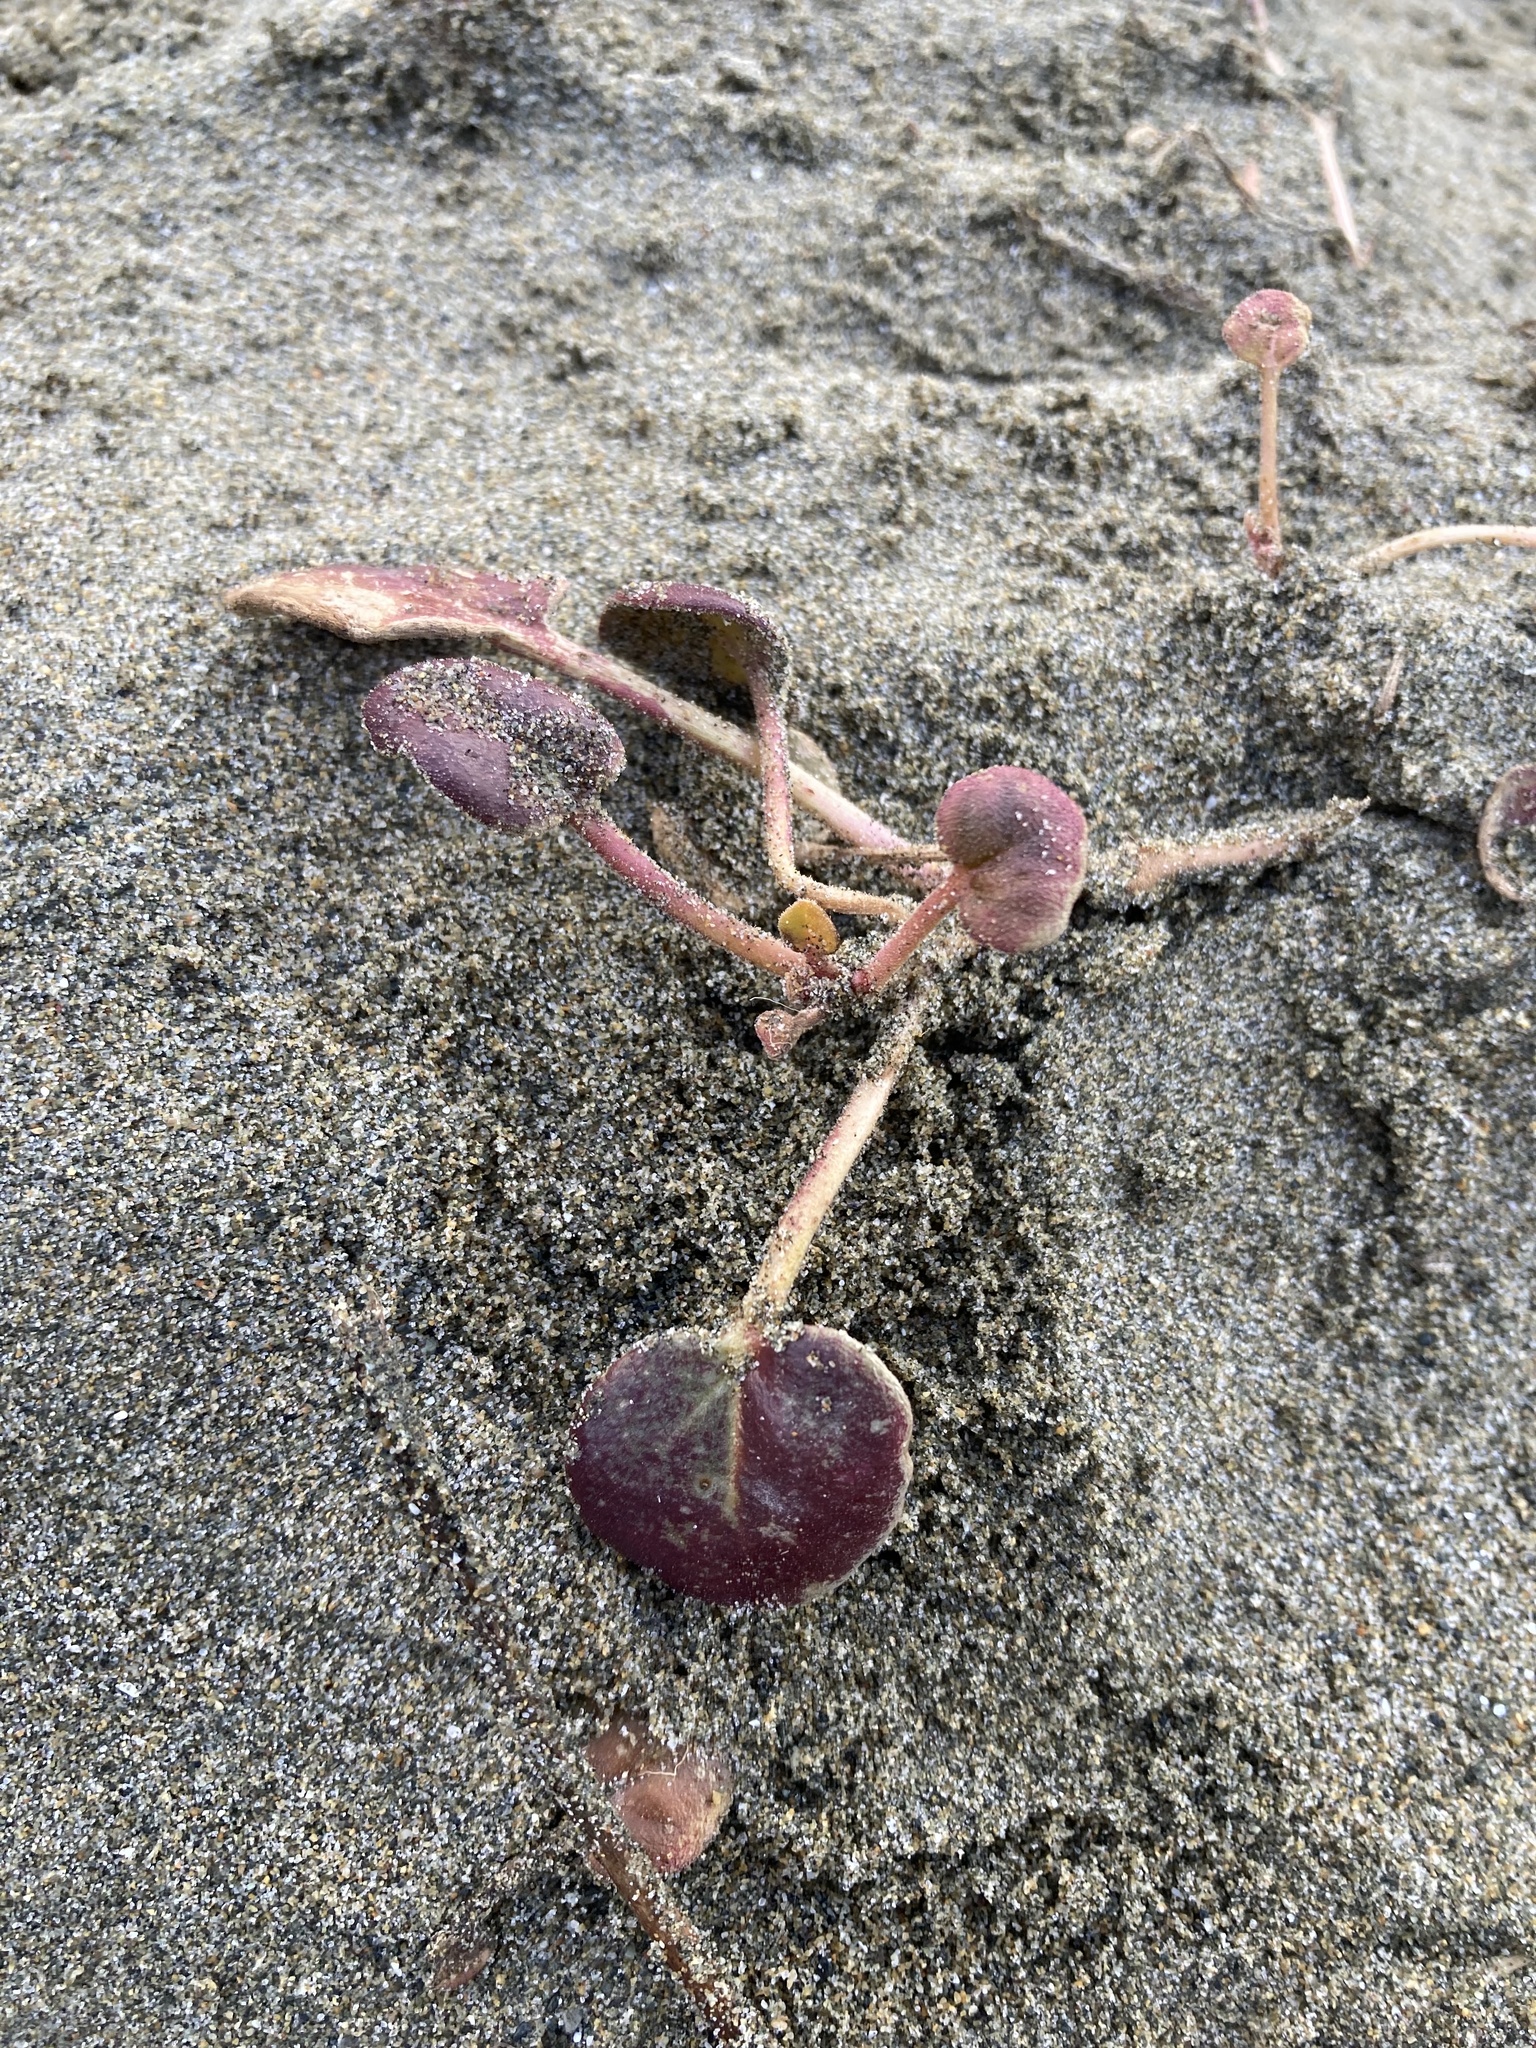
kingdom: Plantae
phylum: Tracheophyta
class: Magnoliopsida
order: Caryophyllales
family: Nyctaginaceae
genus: Abronia
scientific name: Abronia latifolia
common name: Yellow sand-verbena
